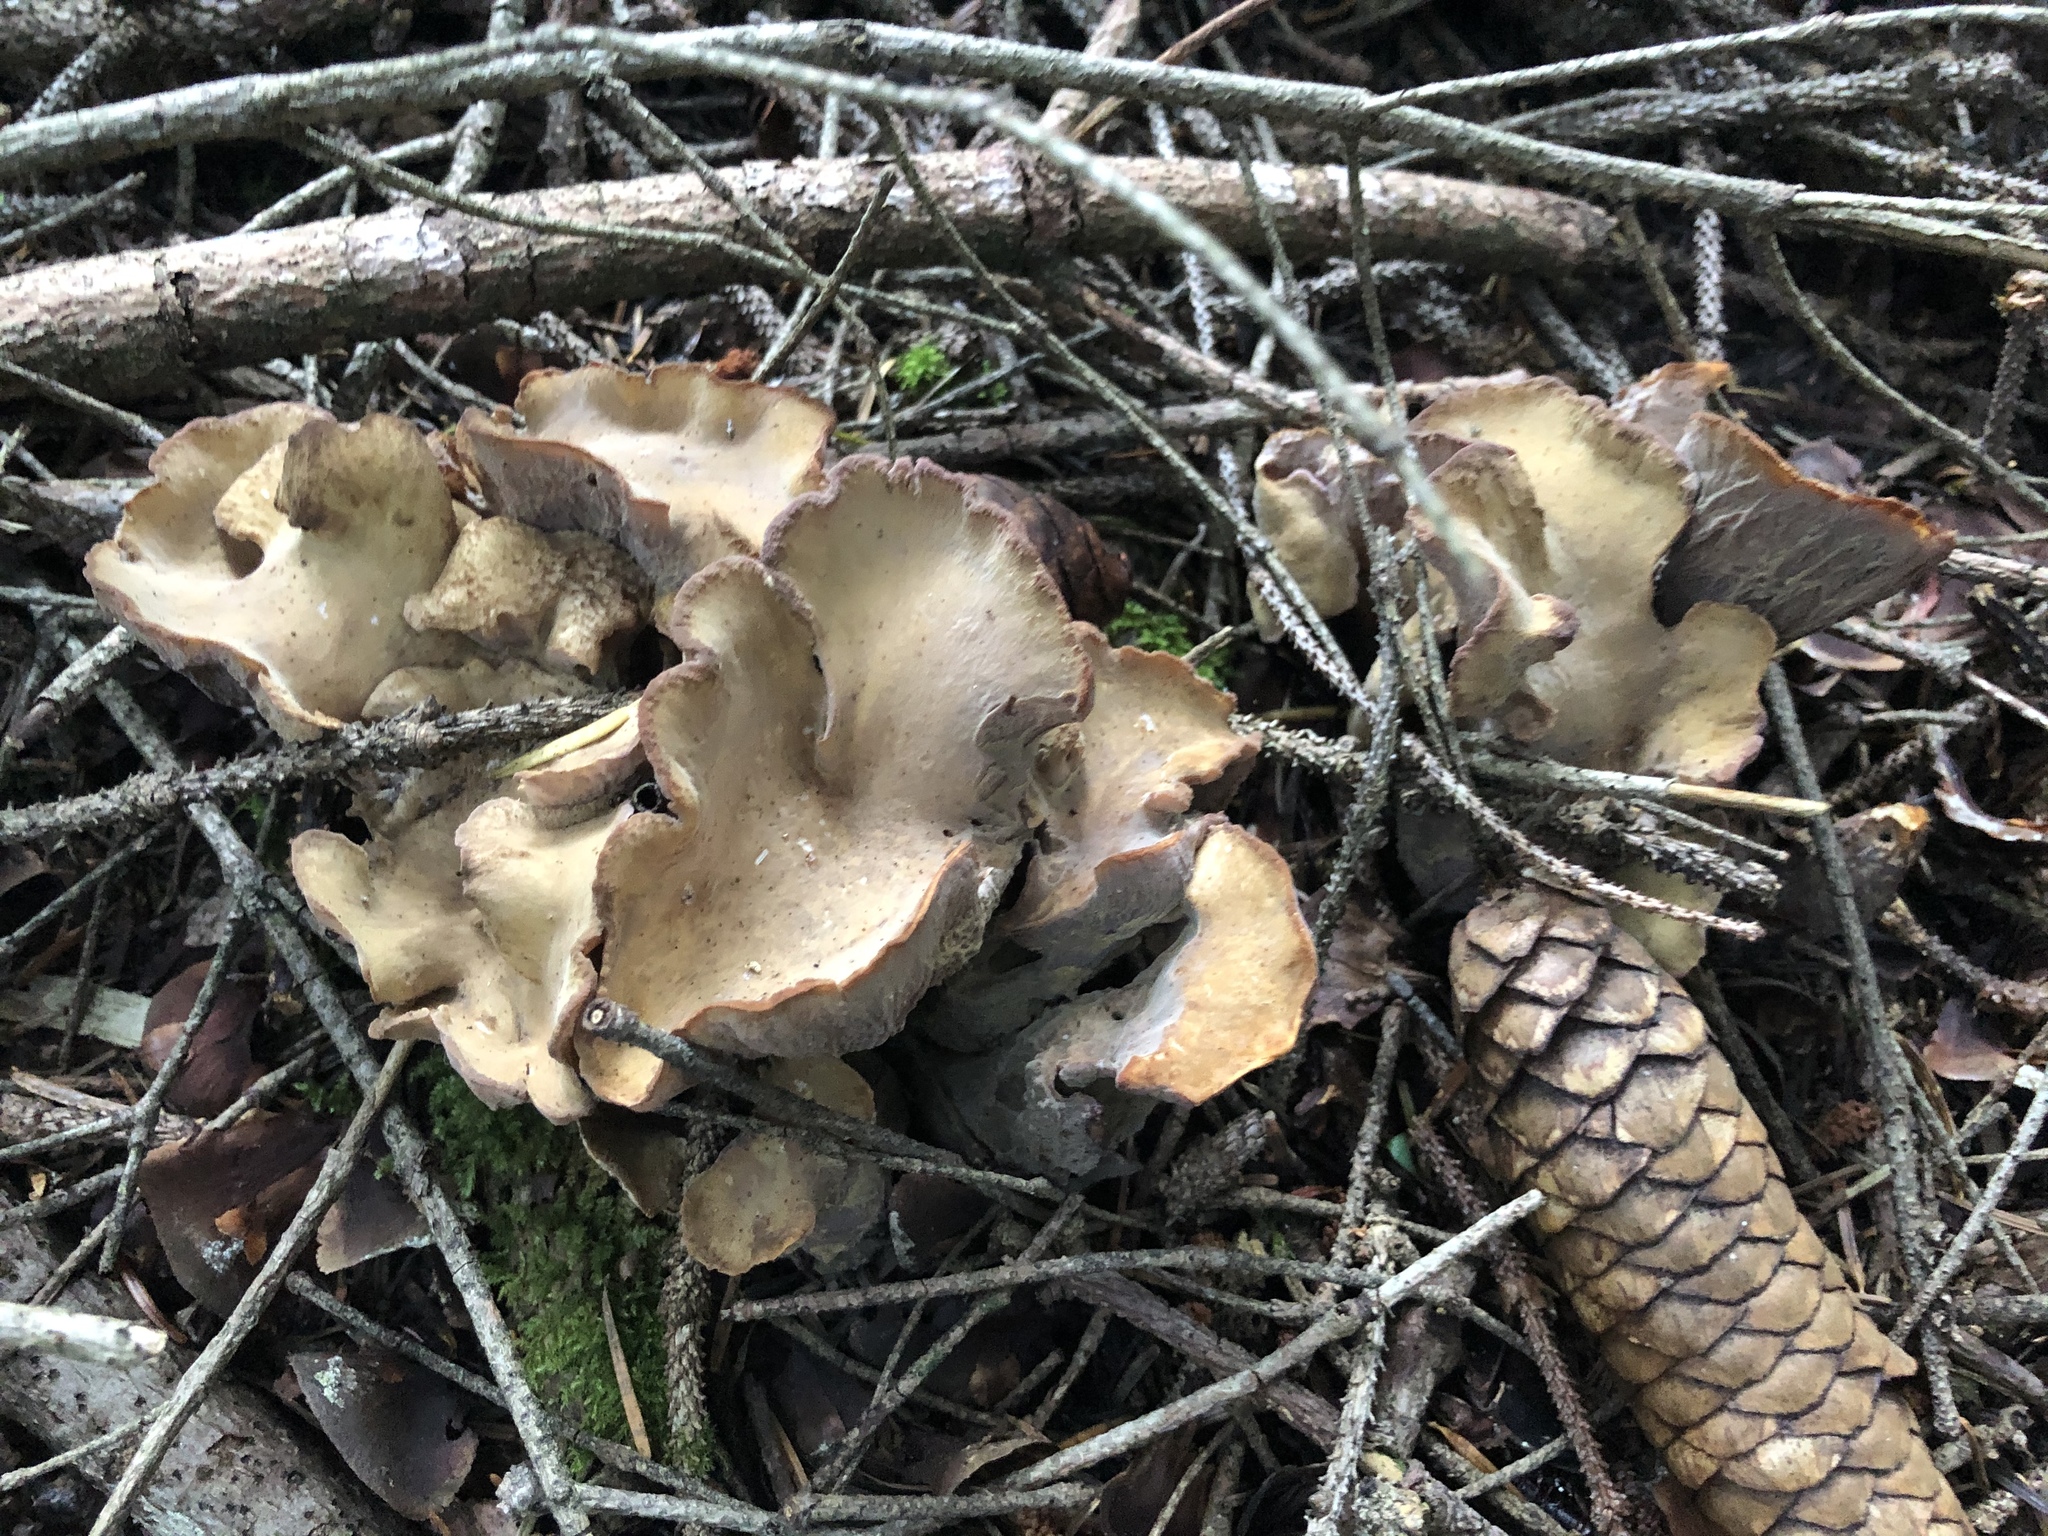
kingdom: Fungi
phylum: Basidiomycota
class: Agaricomycetes
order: Gomphales
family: Gomphaceae
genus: Gomphus
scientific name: Gomphus clavatus
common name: Pig's ear
